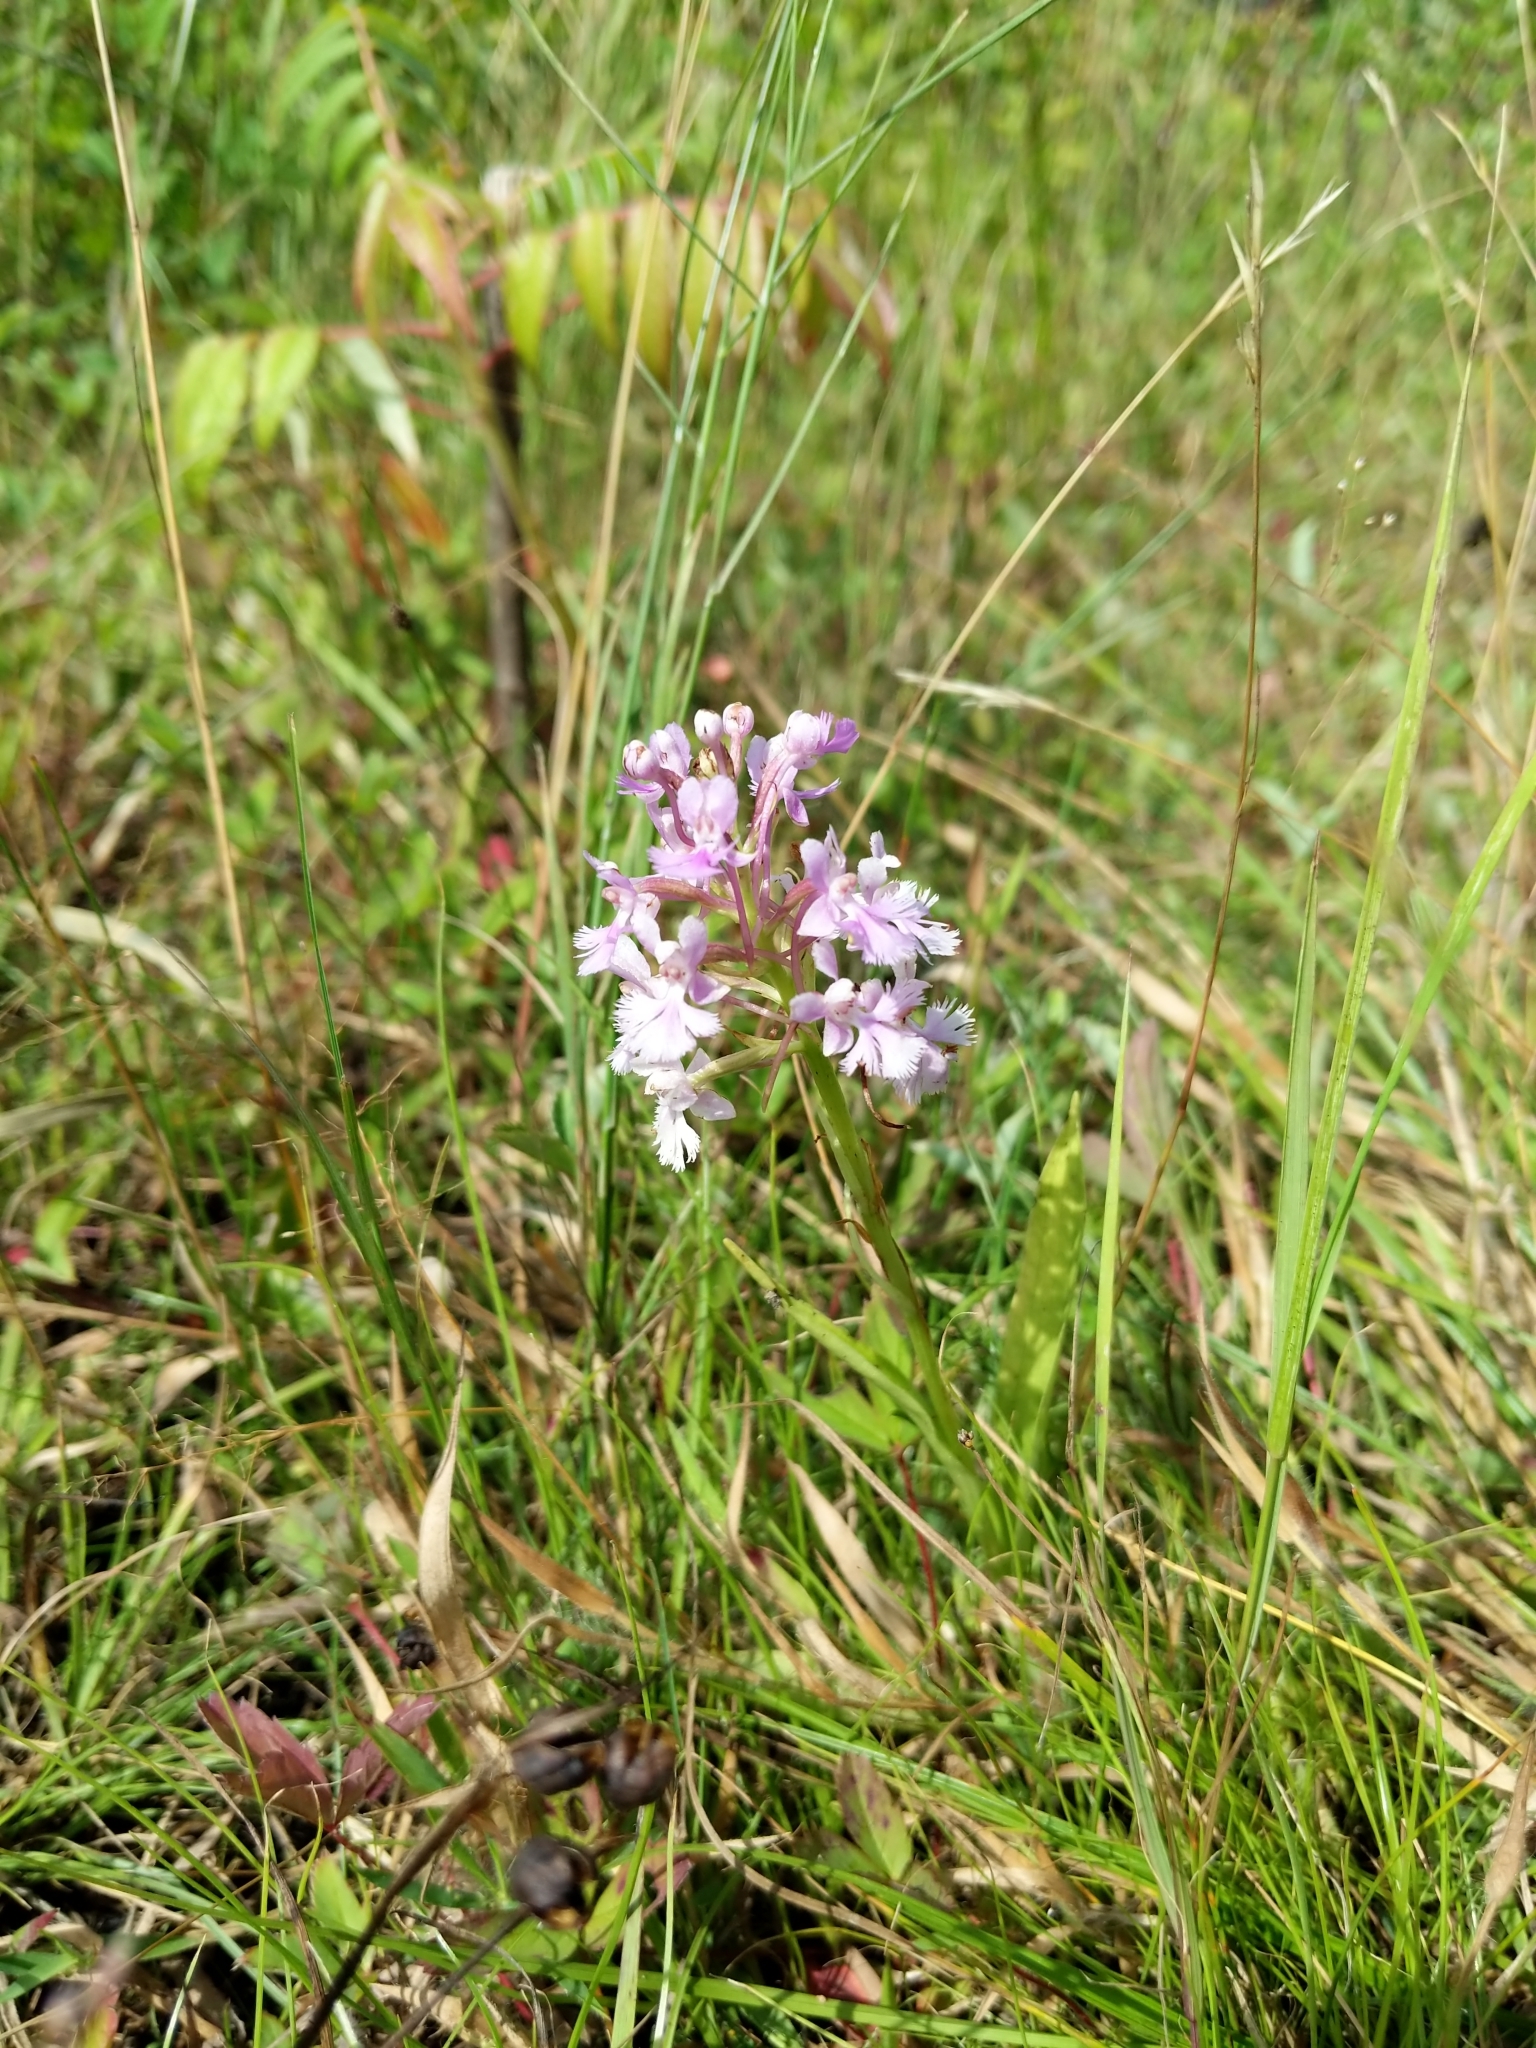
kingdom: Plantae
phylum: Tracheophyta
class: Liliopsida
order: Asparagales
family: Orchidaceae
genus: Platanthera
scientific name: Platanthera psycodes
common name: Lesser purple fringed orchid
